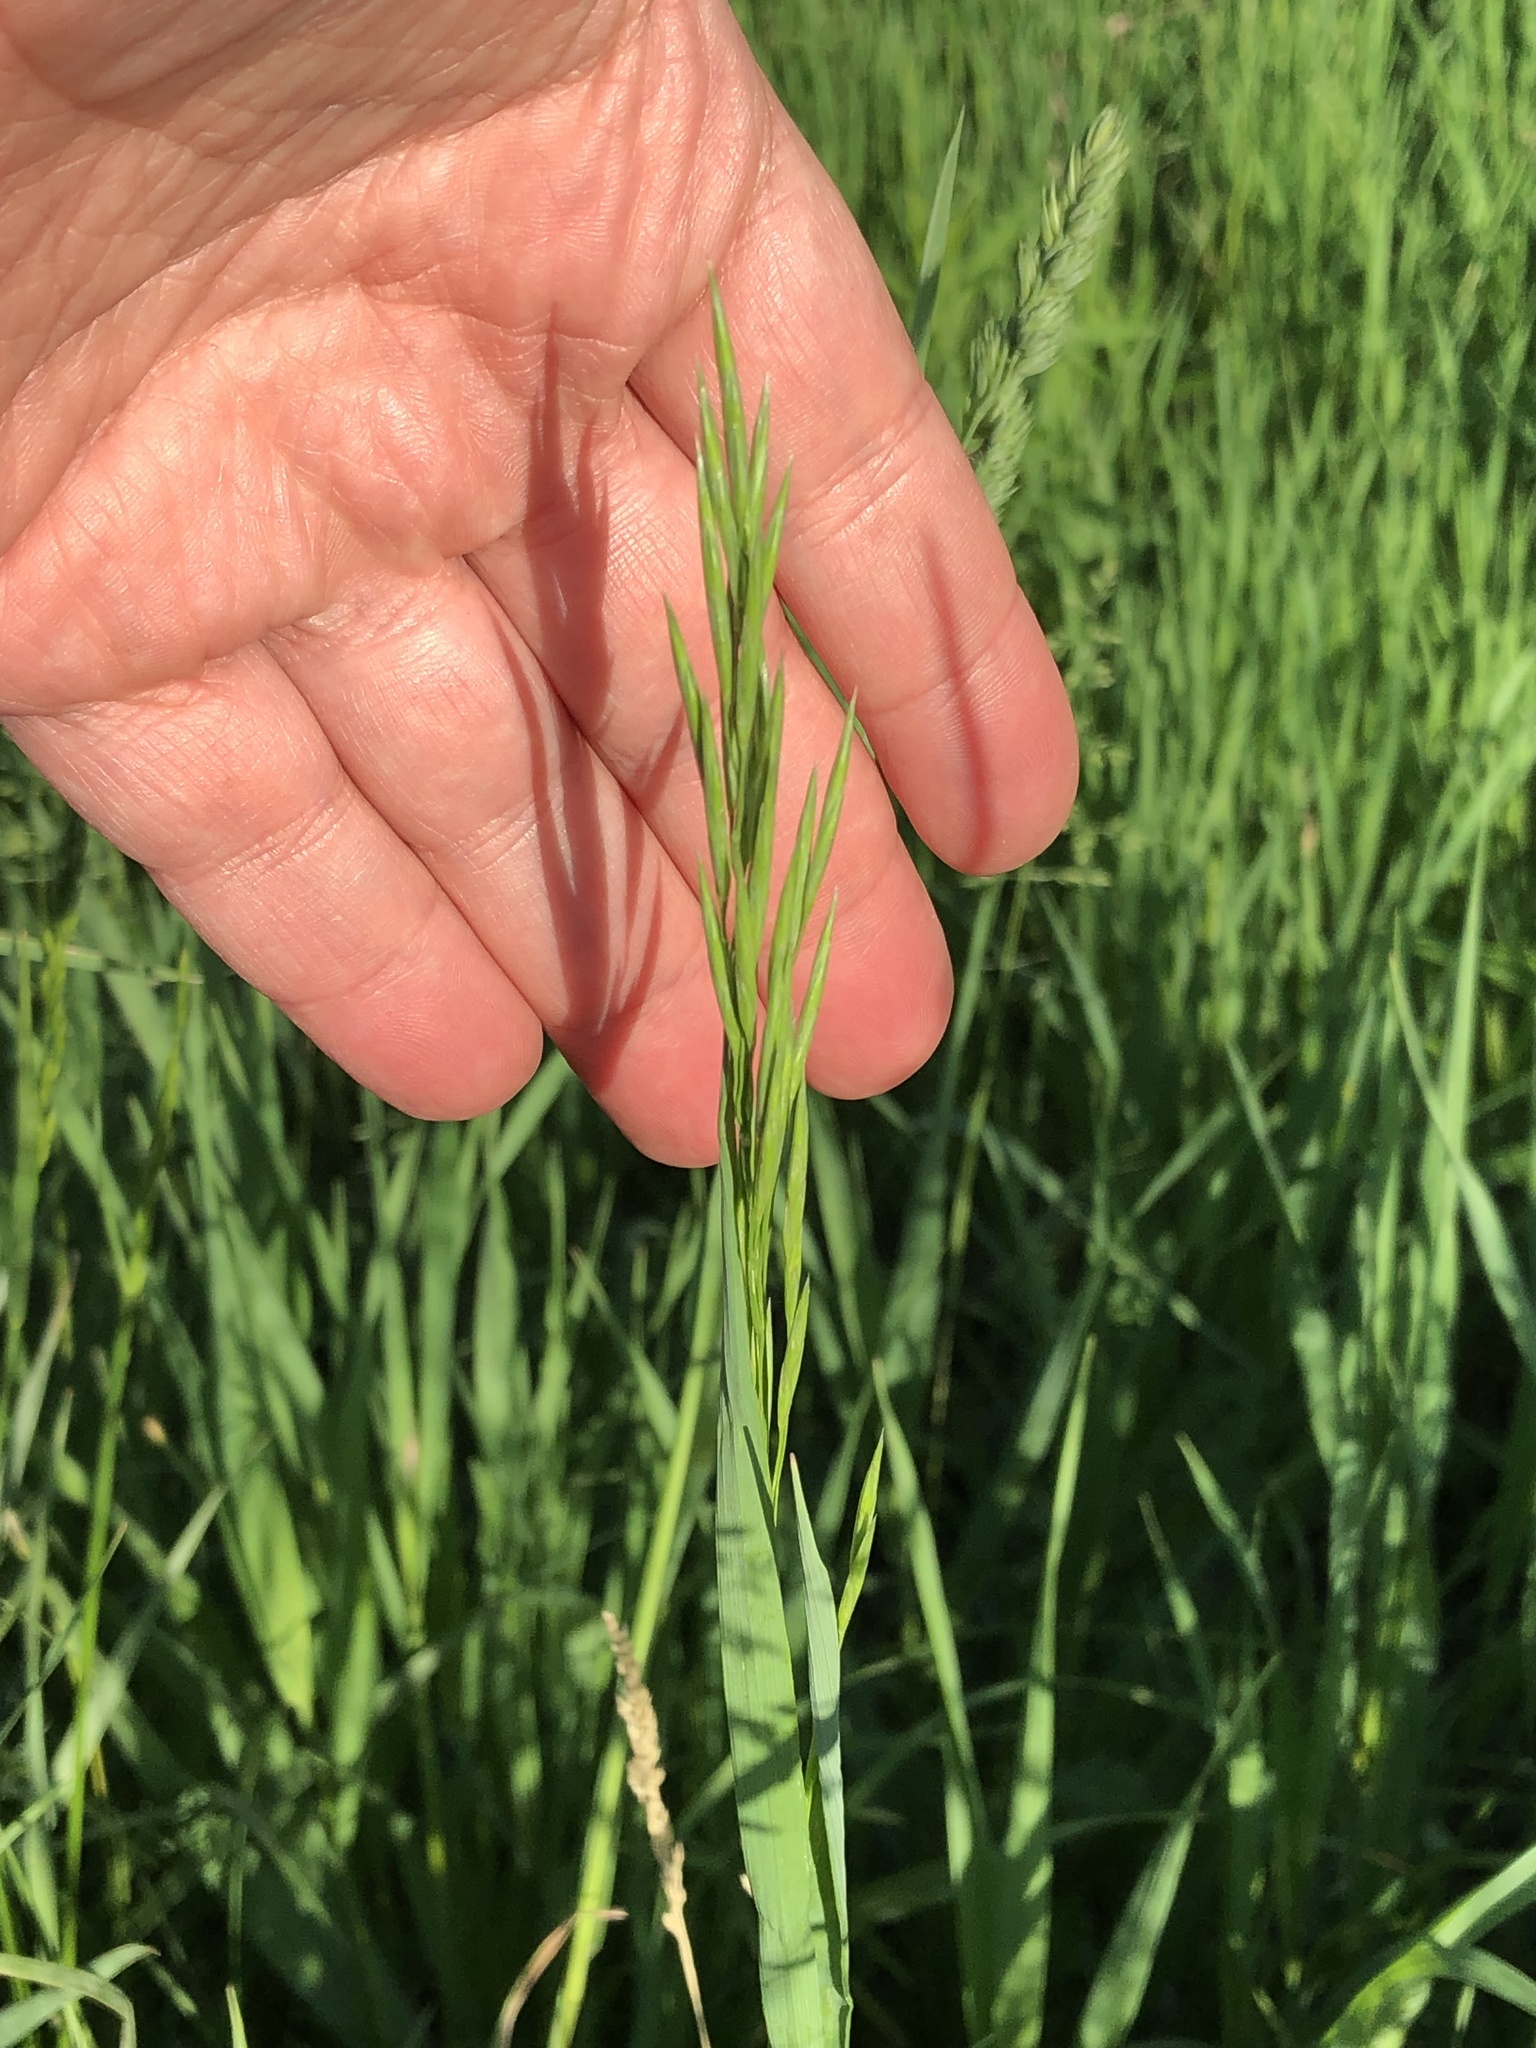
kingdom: Plantae
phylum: Tracheophyta
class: Liliopsida
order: Poales
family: Poaceae
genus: Bromus
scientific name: Bromus inermis
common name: Smooth brome
